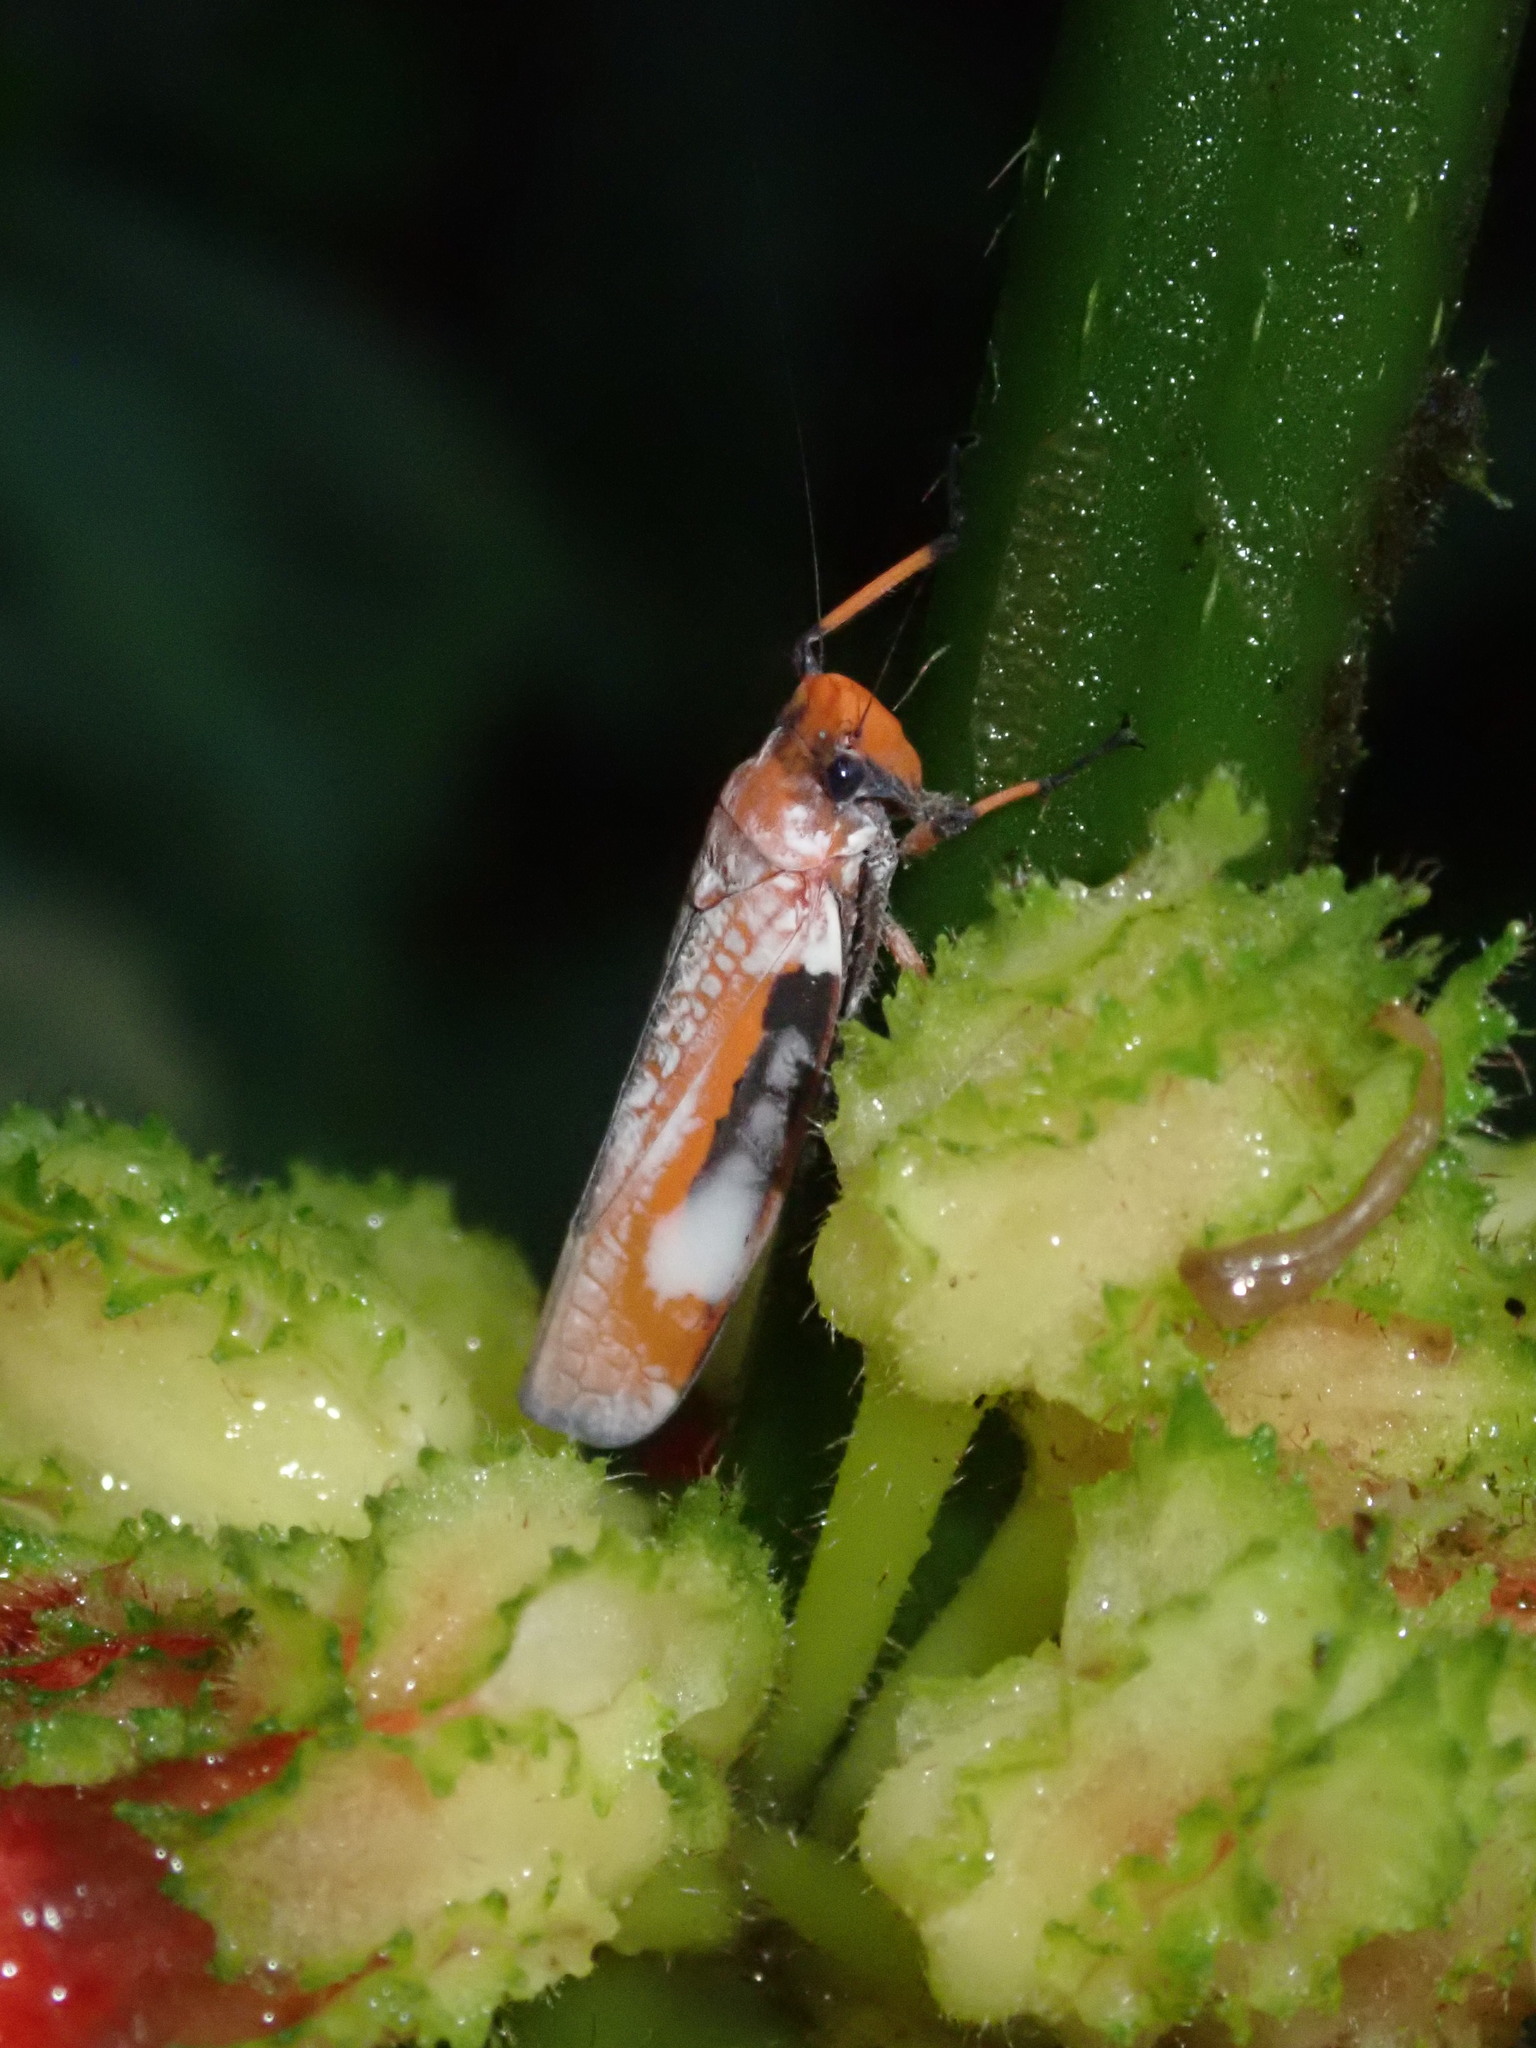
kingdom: Animalia
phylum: Arthropoda
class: Insecta
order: Hemiptera
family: Cicadellidae
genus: Onega
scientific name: Onega avella
